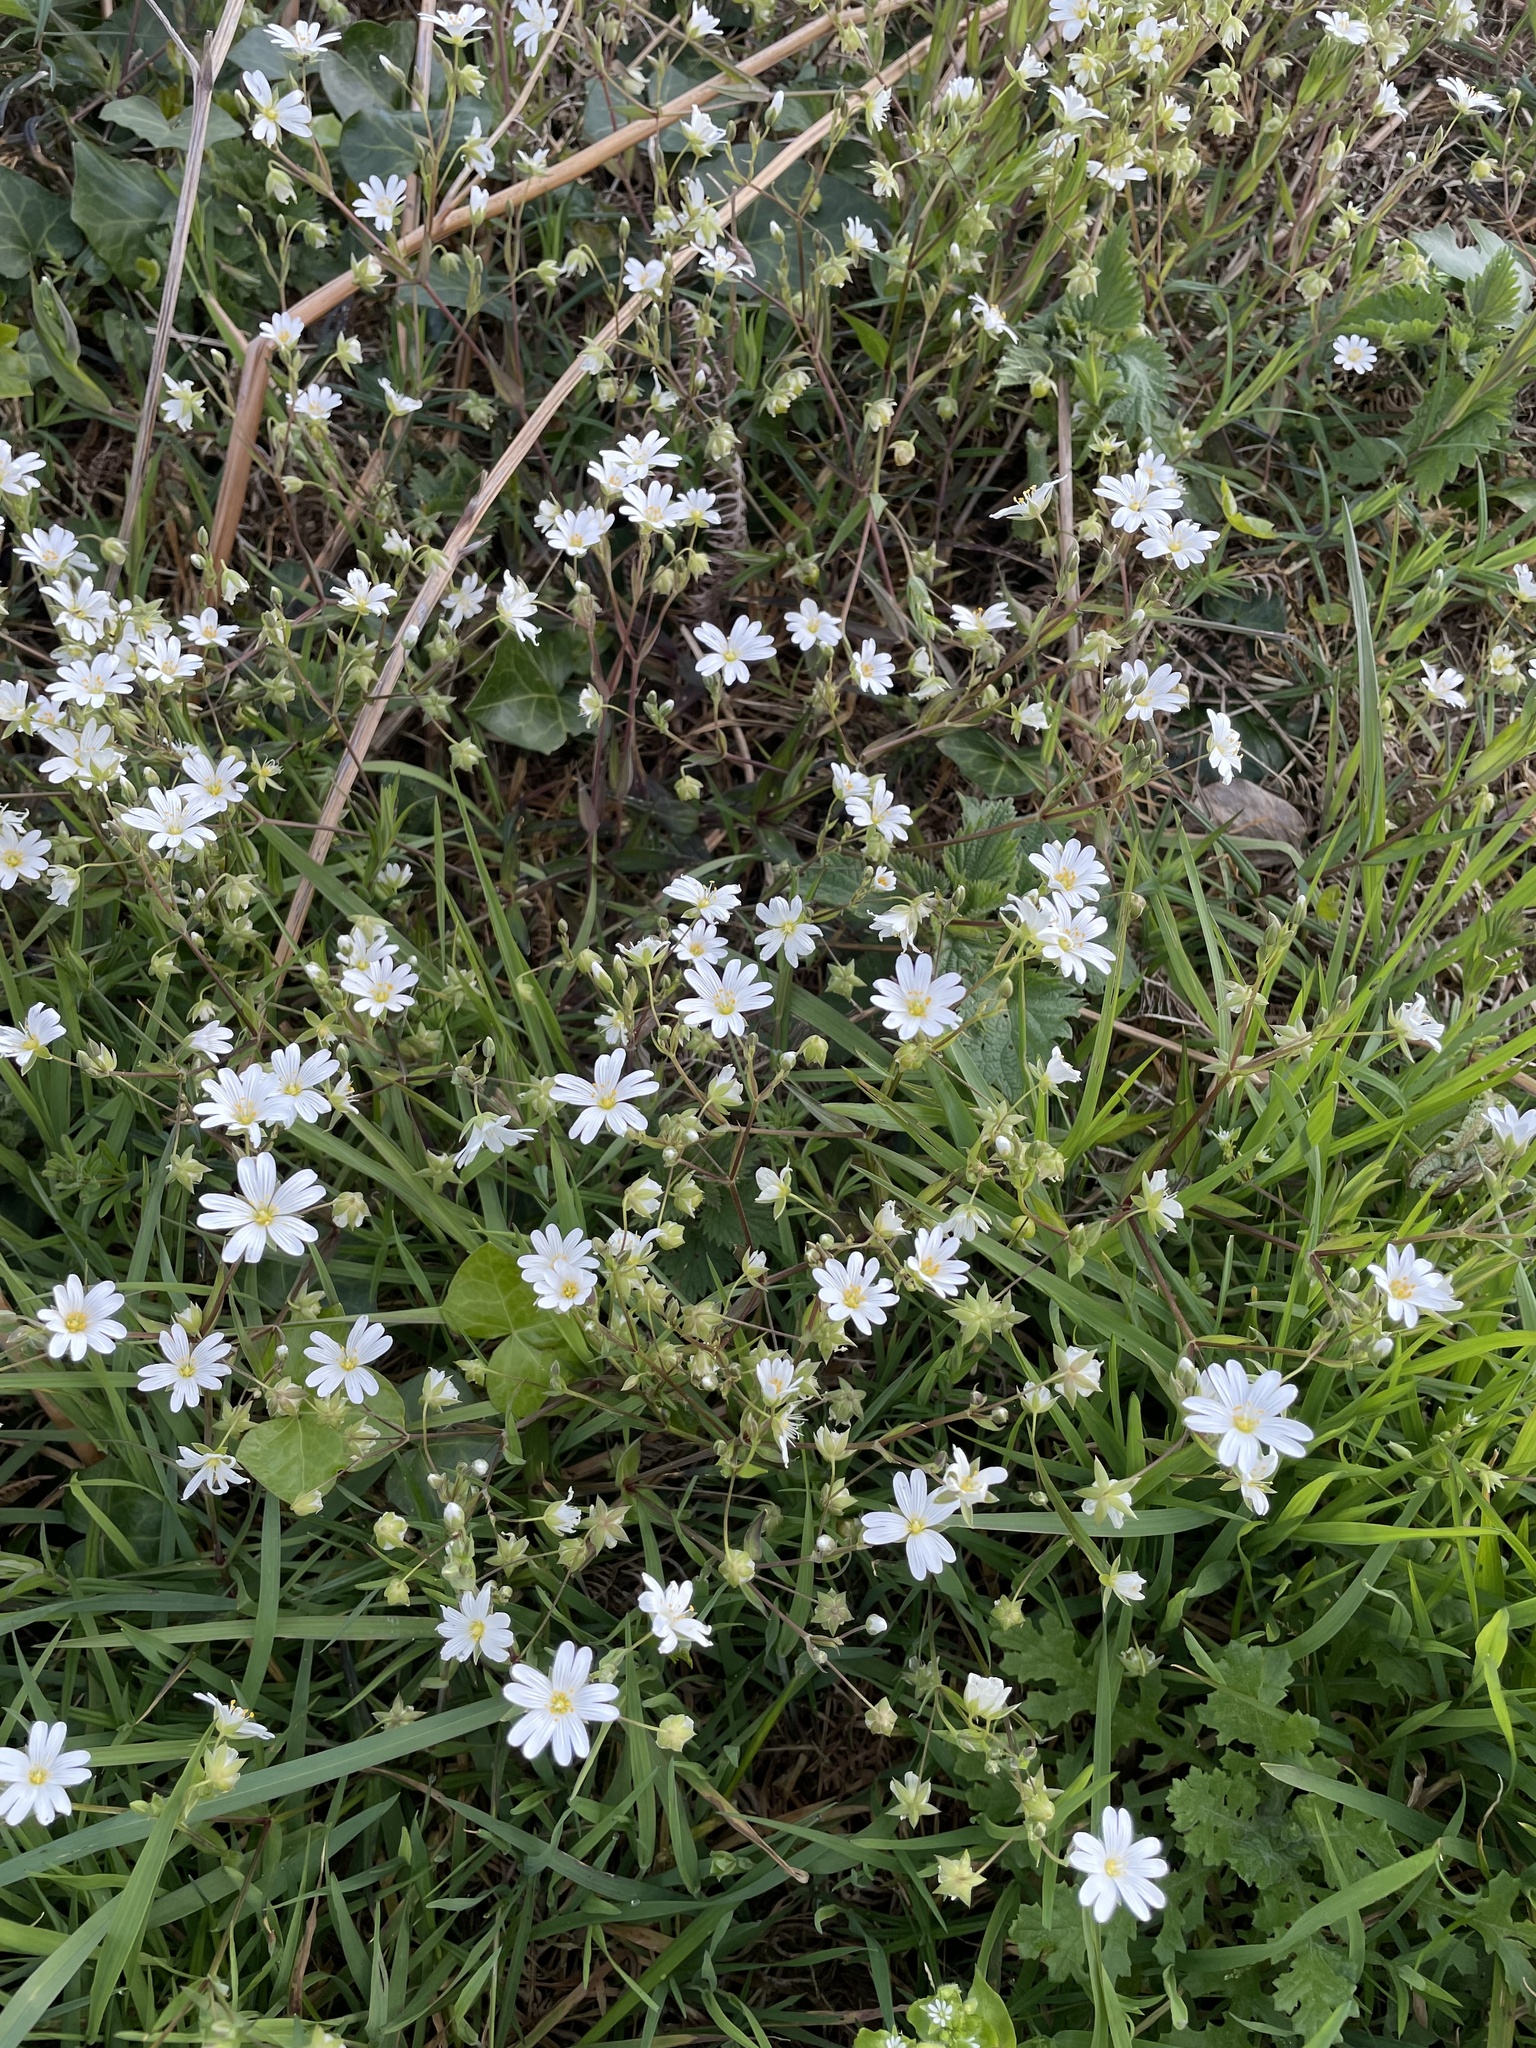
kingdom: Plantae
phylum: Tracheophyta
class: Magnoliopsida
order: Caryophyllales
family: Caryophyllaceae
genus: Rabelera
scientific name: Rabelera holostea
